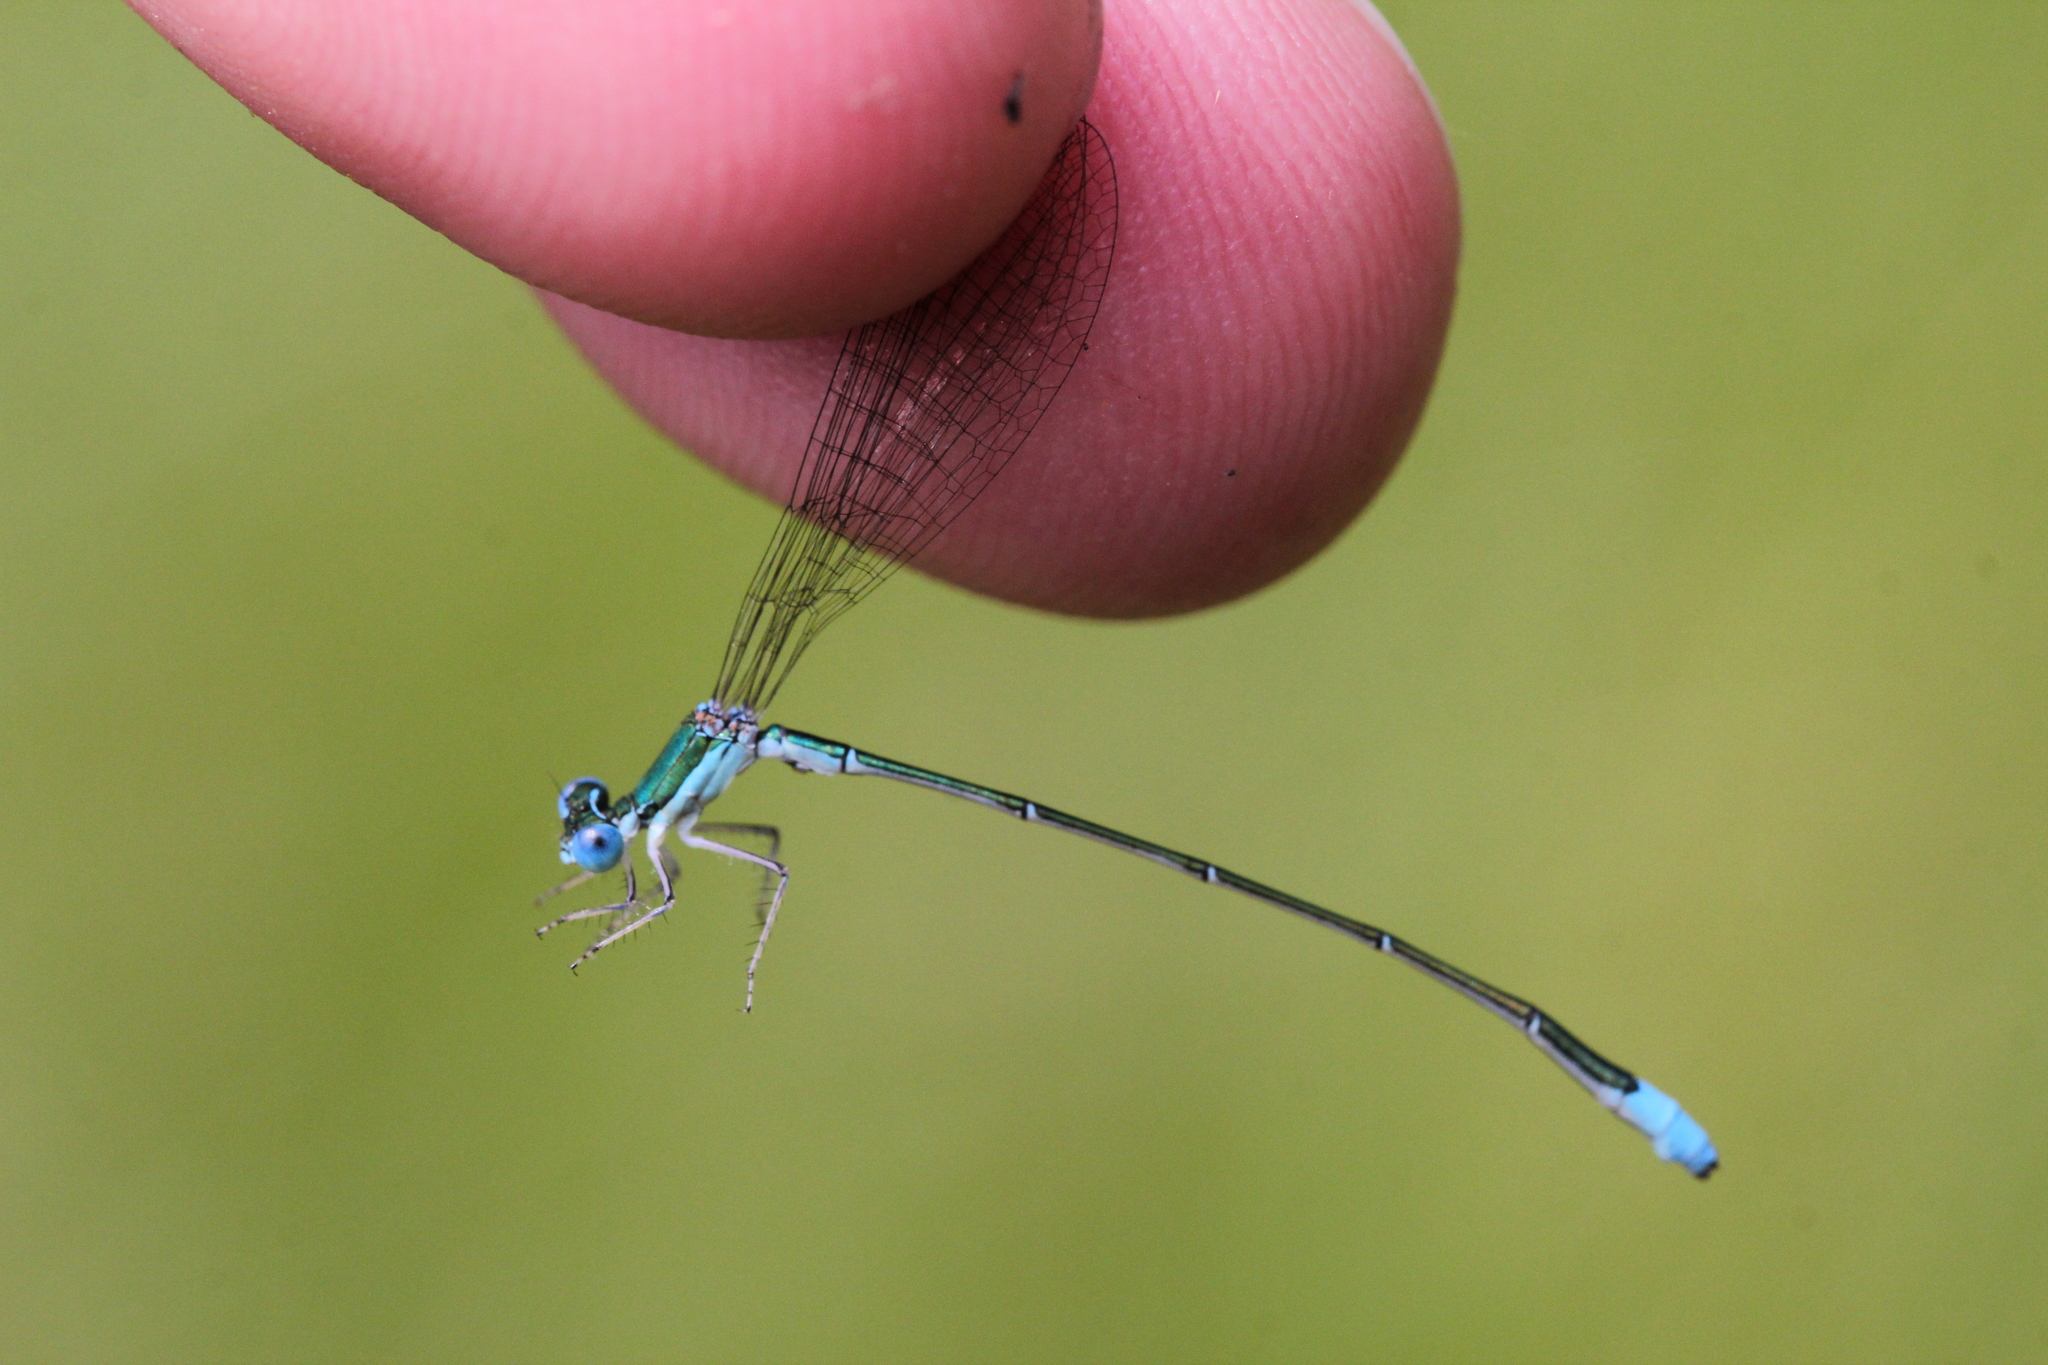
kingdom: Animalia
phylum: Arthropoda
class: Insecta
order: Odonata
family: Coenagrionidae
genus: Nehalennia
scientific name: Nehalennia gracilis
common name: Sphagnum sprite
